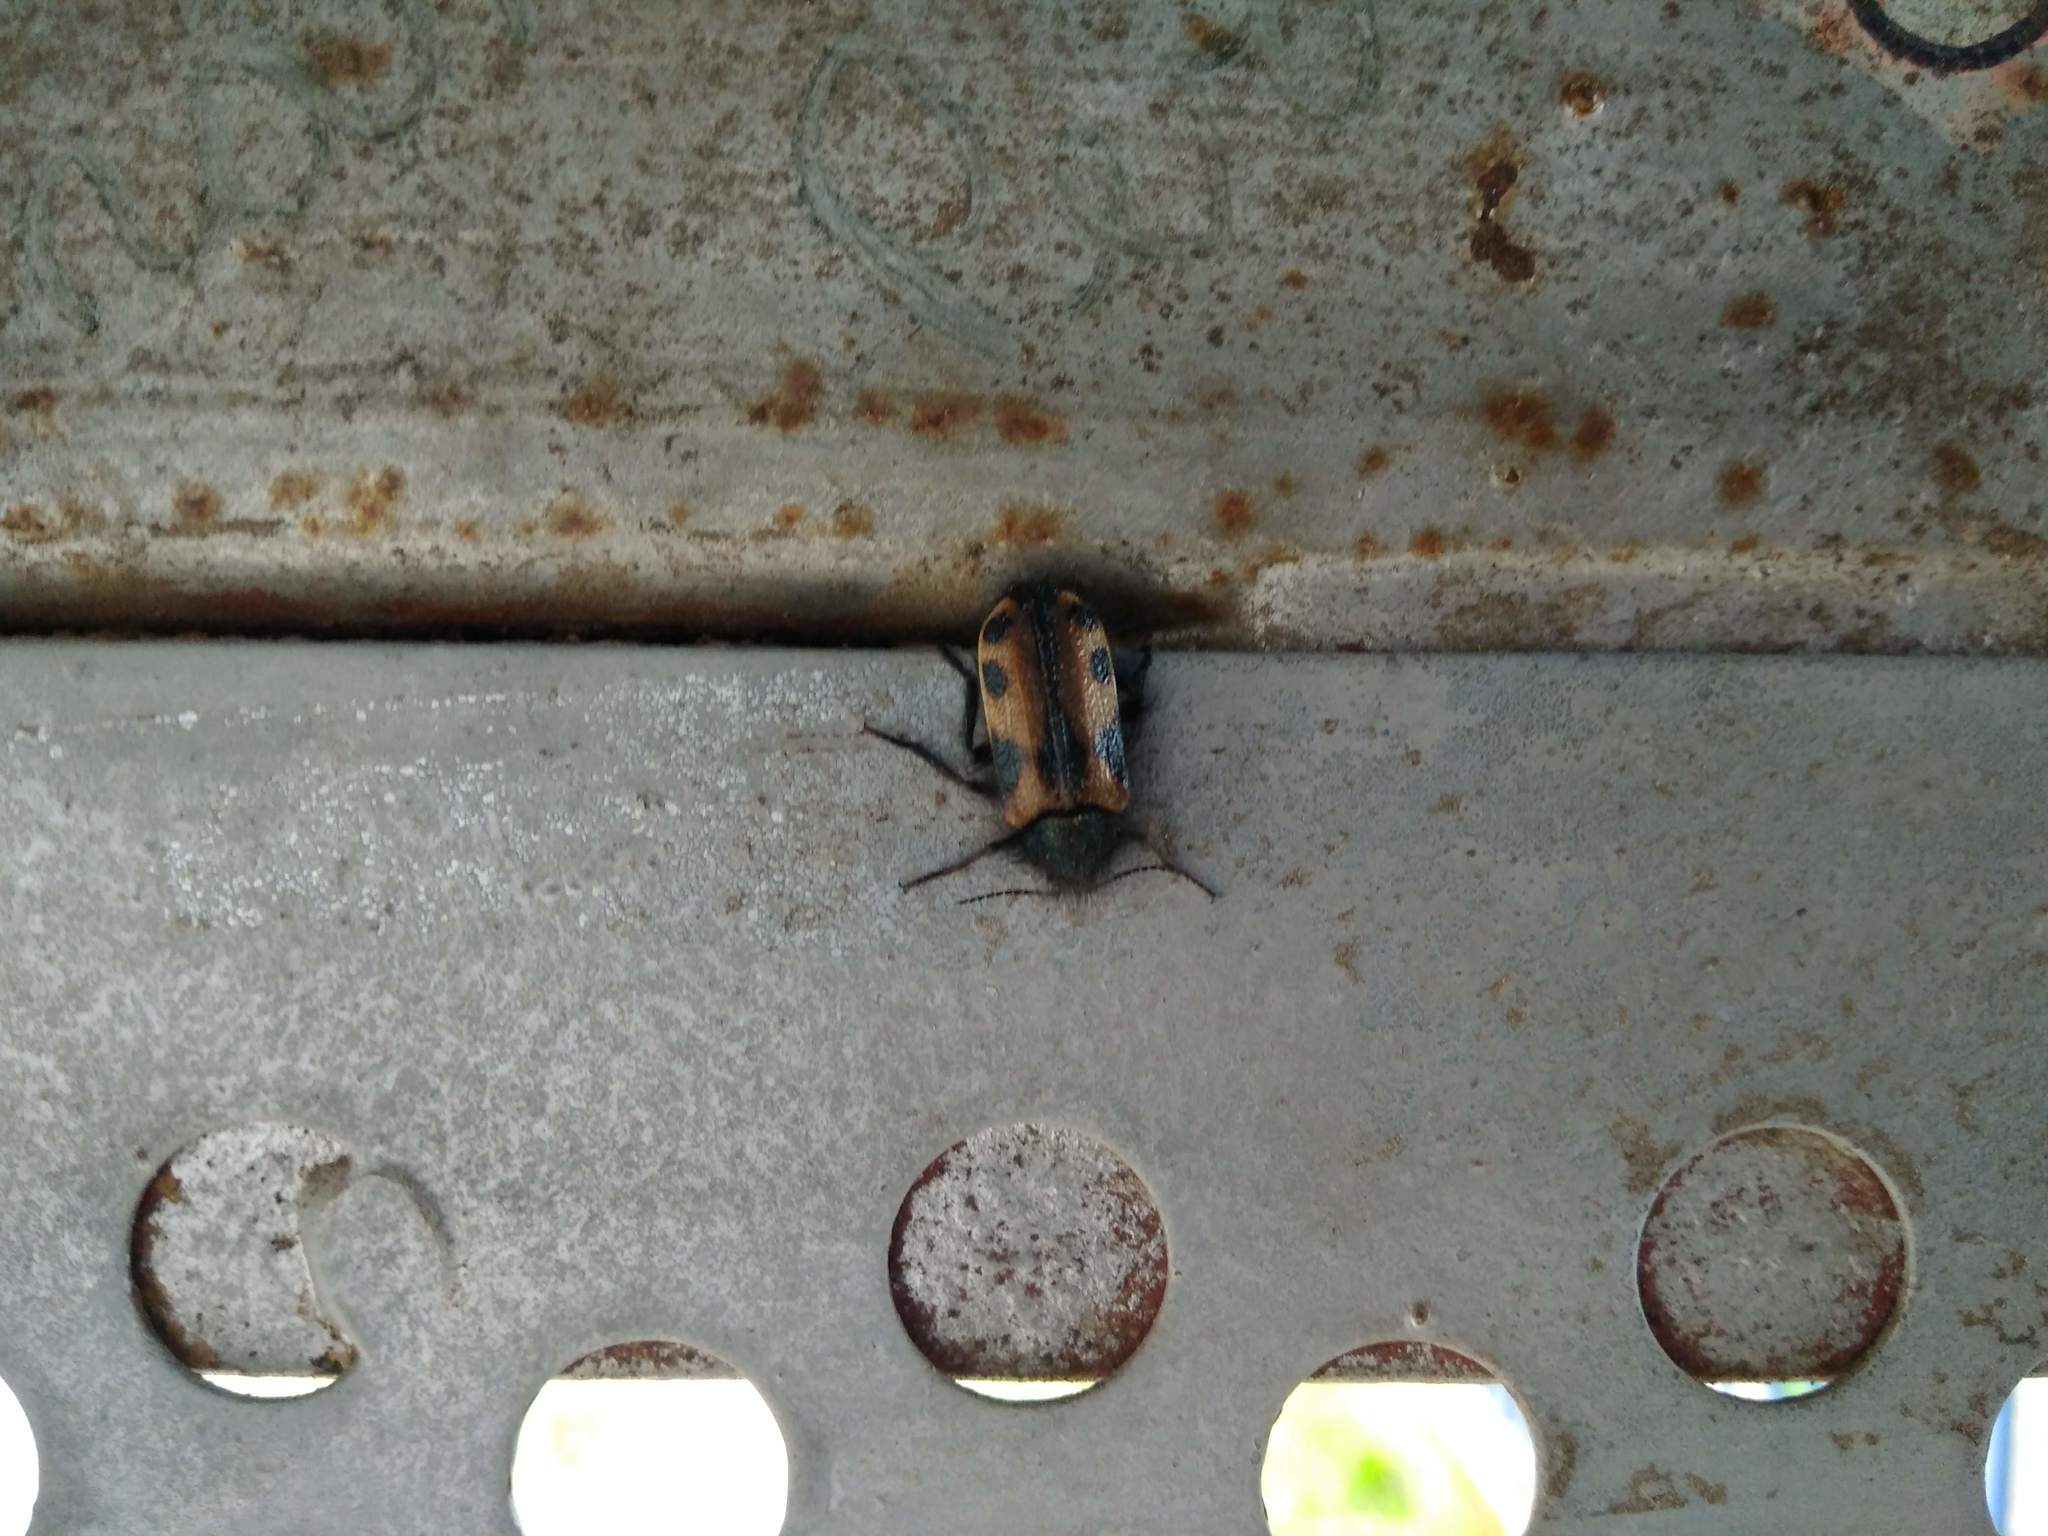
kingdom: Animalia
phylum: Arthropoda
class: Insecta
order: Coleoptera
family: Melyridae
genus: Astylus
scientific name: Astylus
